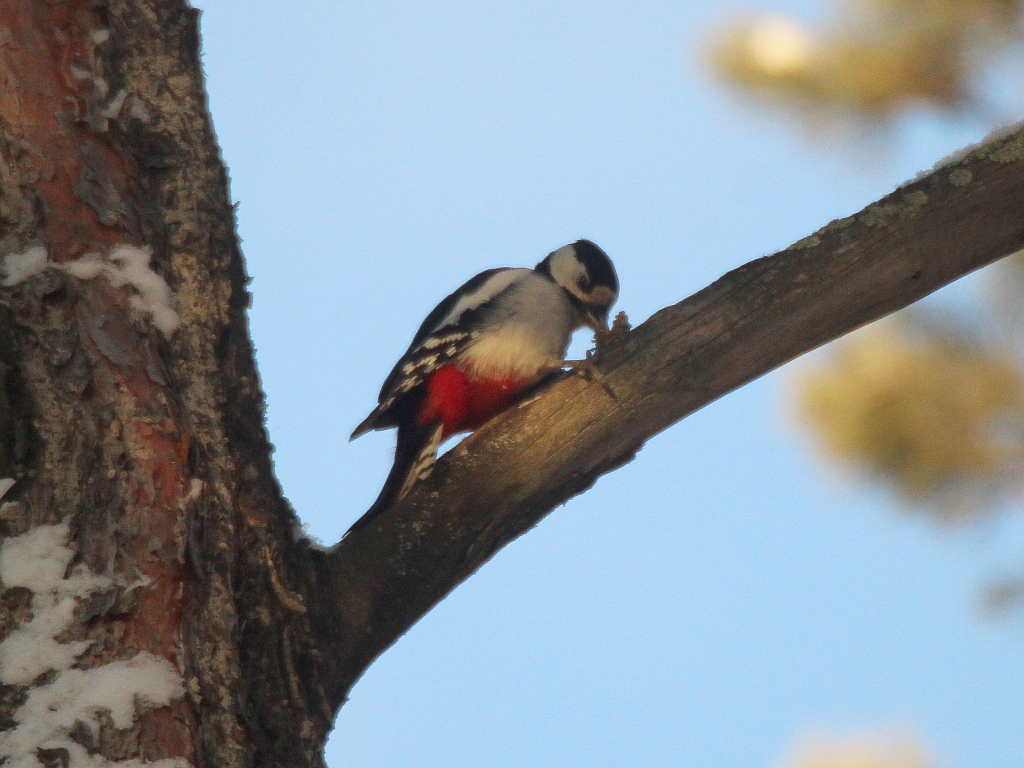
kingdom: Animalia
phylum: Chordata
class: Aves
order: Piciformes
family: Picidae
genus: Dendrocopos
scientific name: Dendrocopos major
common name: Great spotted woodpecker
